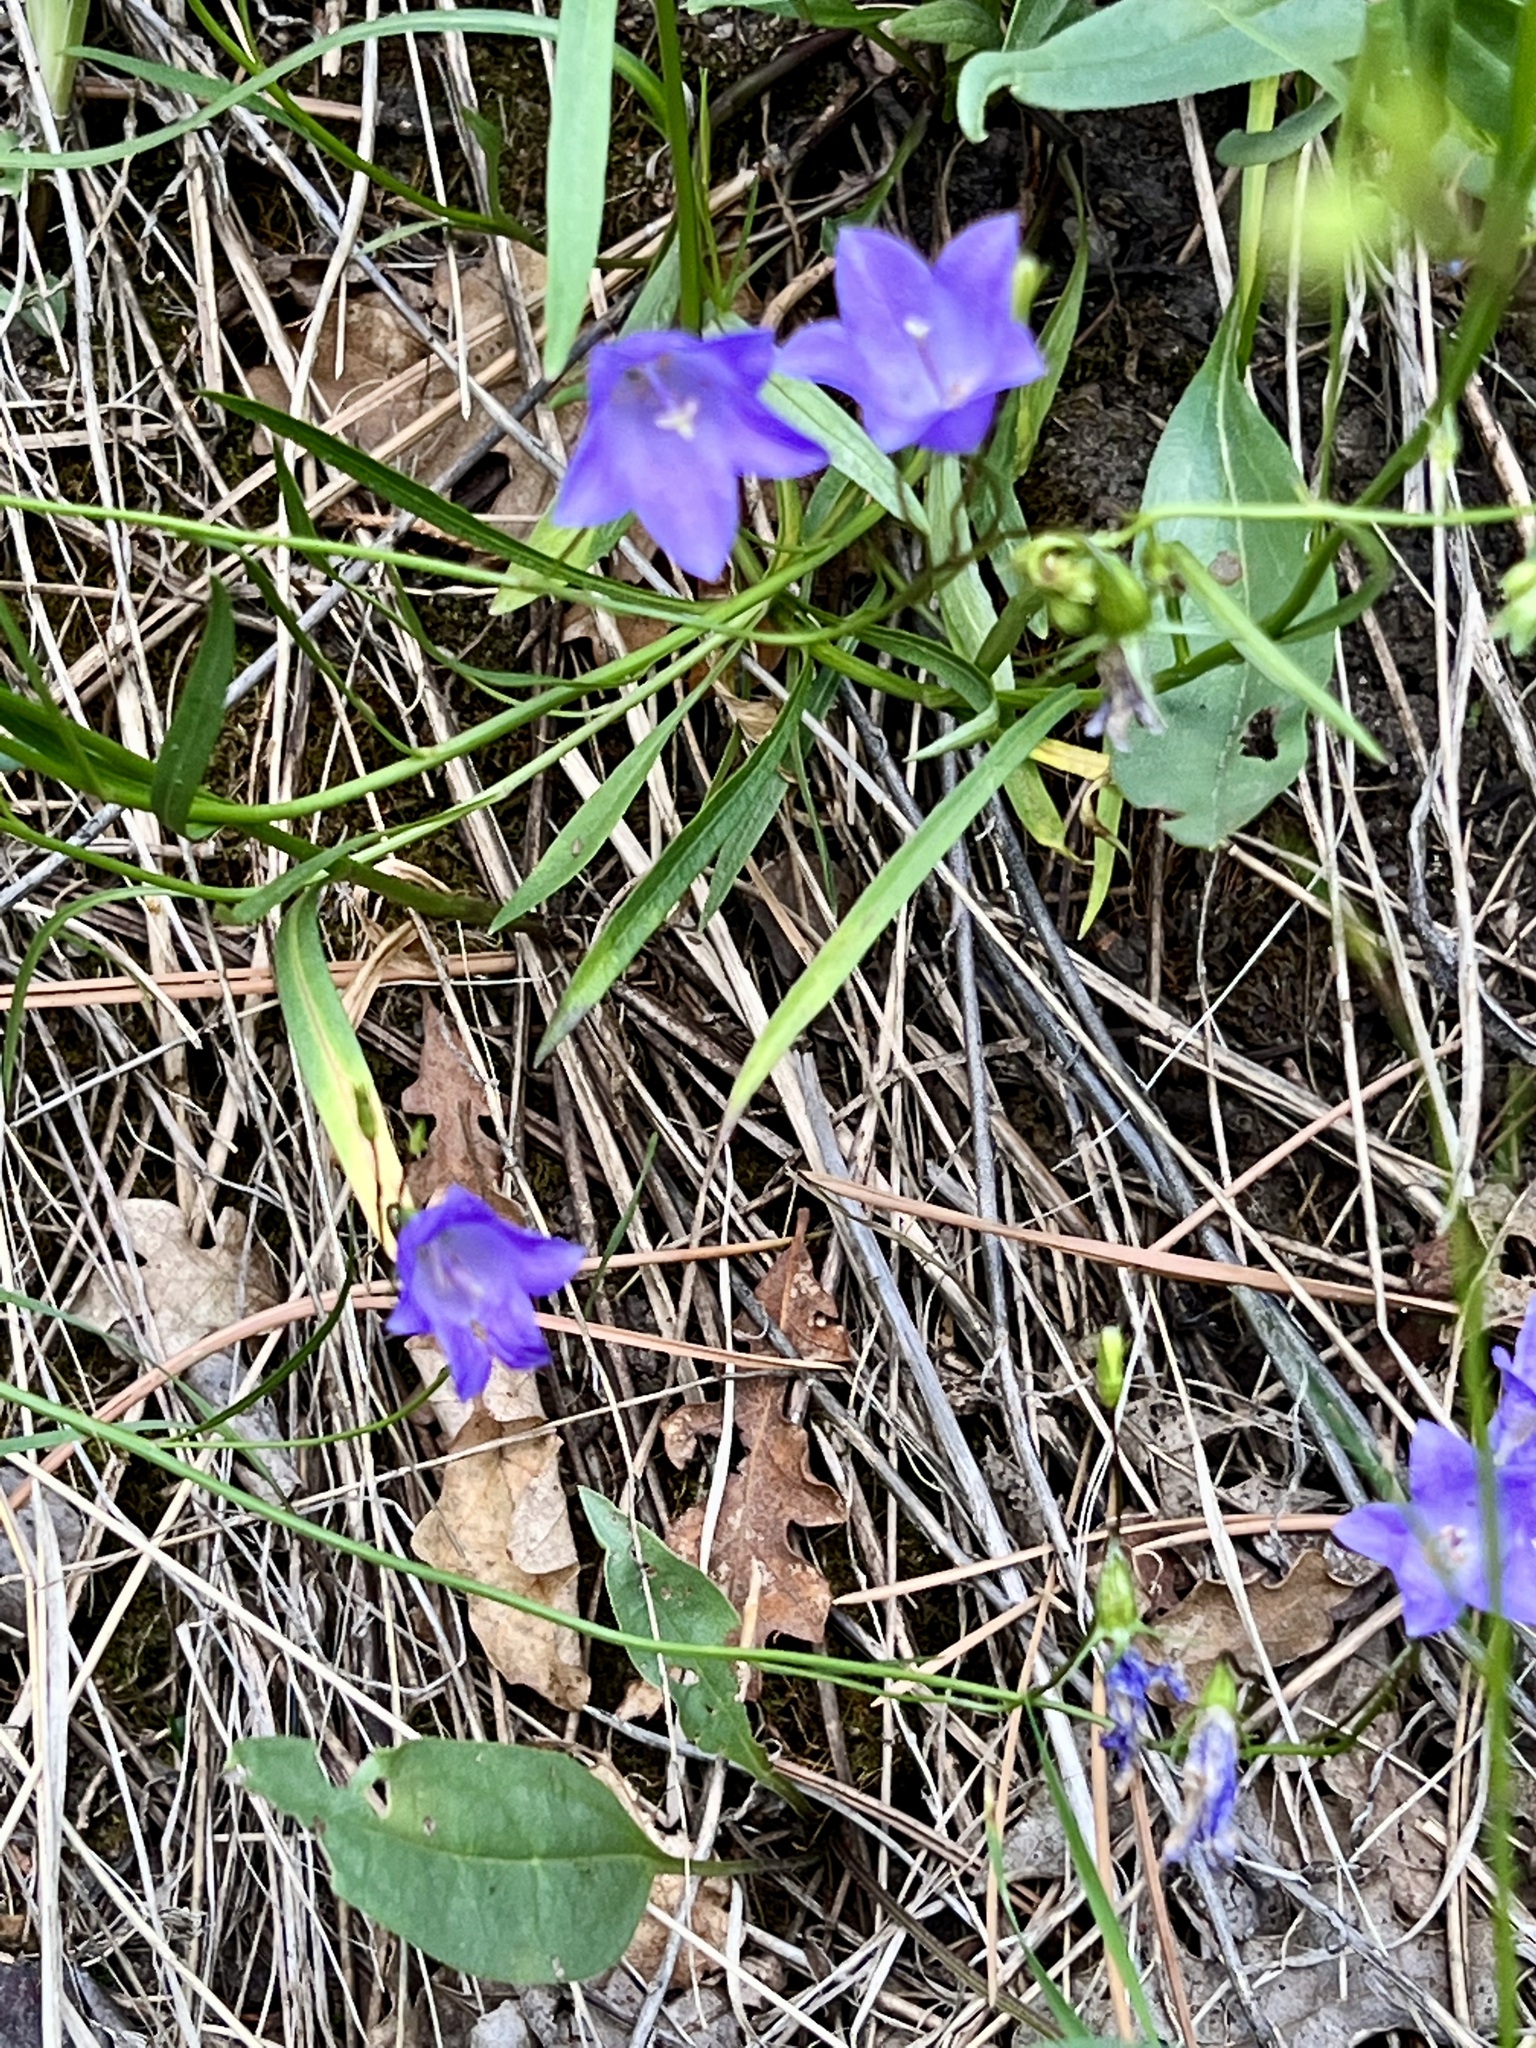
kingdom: Plantae
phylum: Tracheophyta
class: Magnoliopsida
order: Asterales
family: Campanulaceae
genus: Campanula
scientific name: Campanula petiolata
